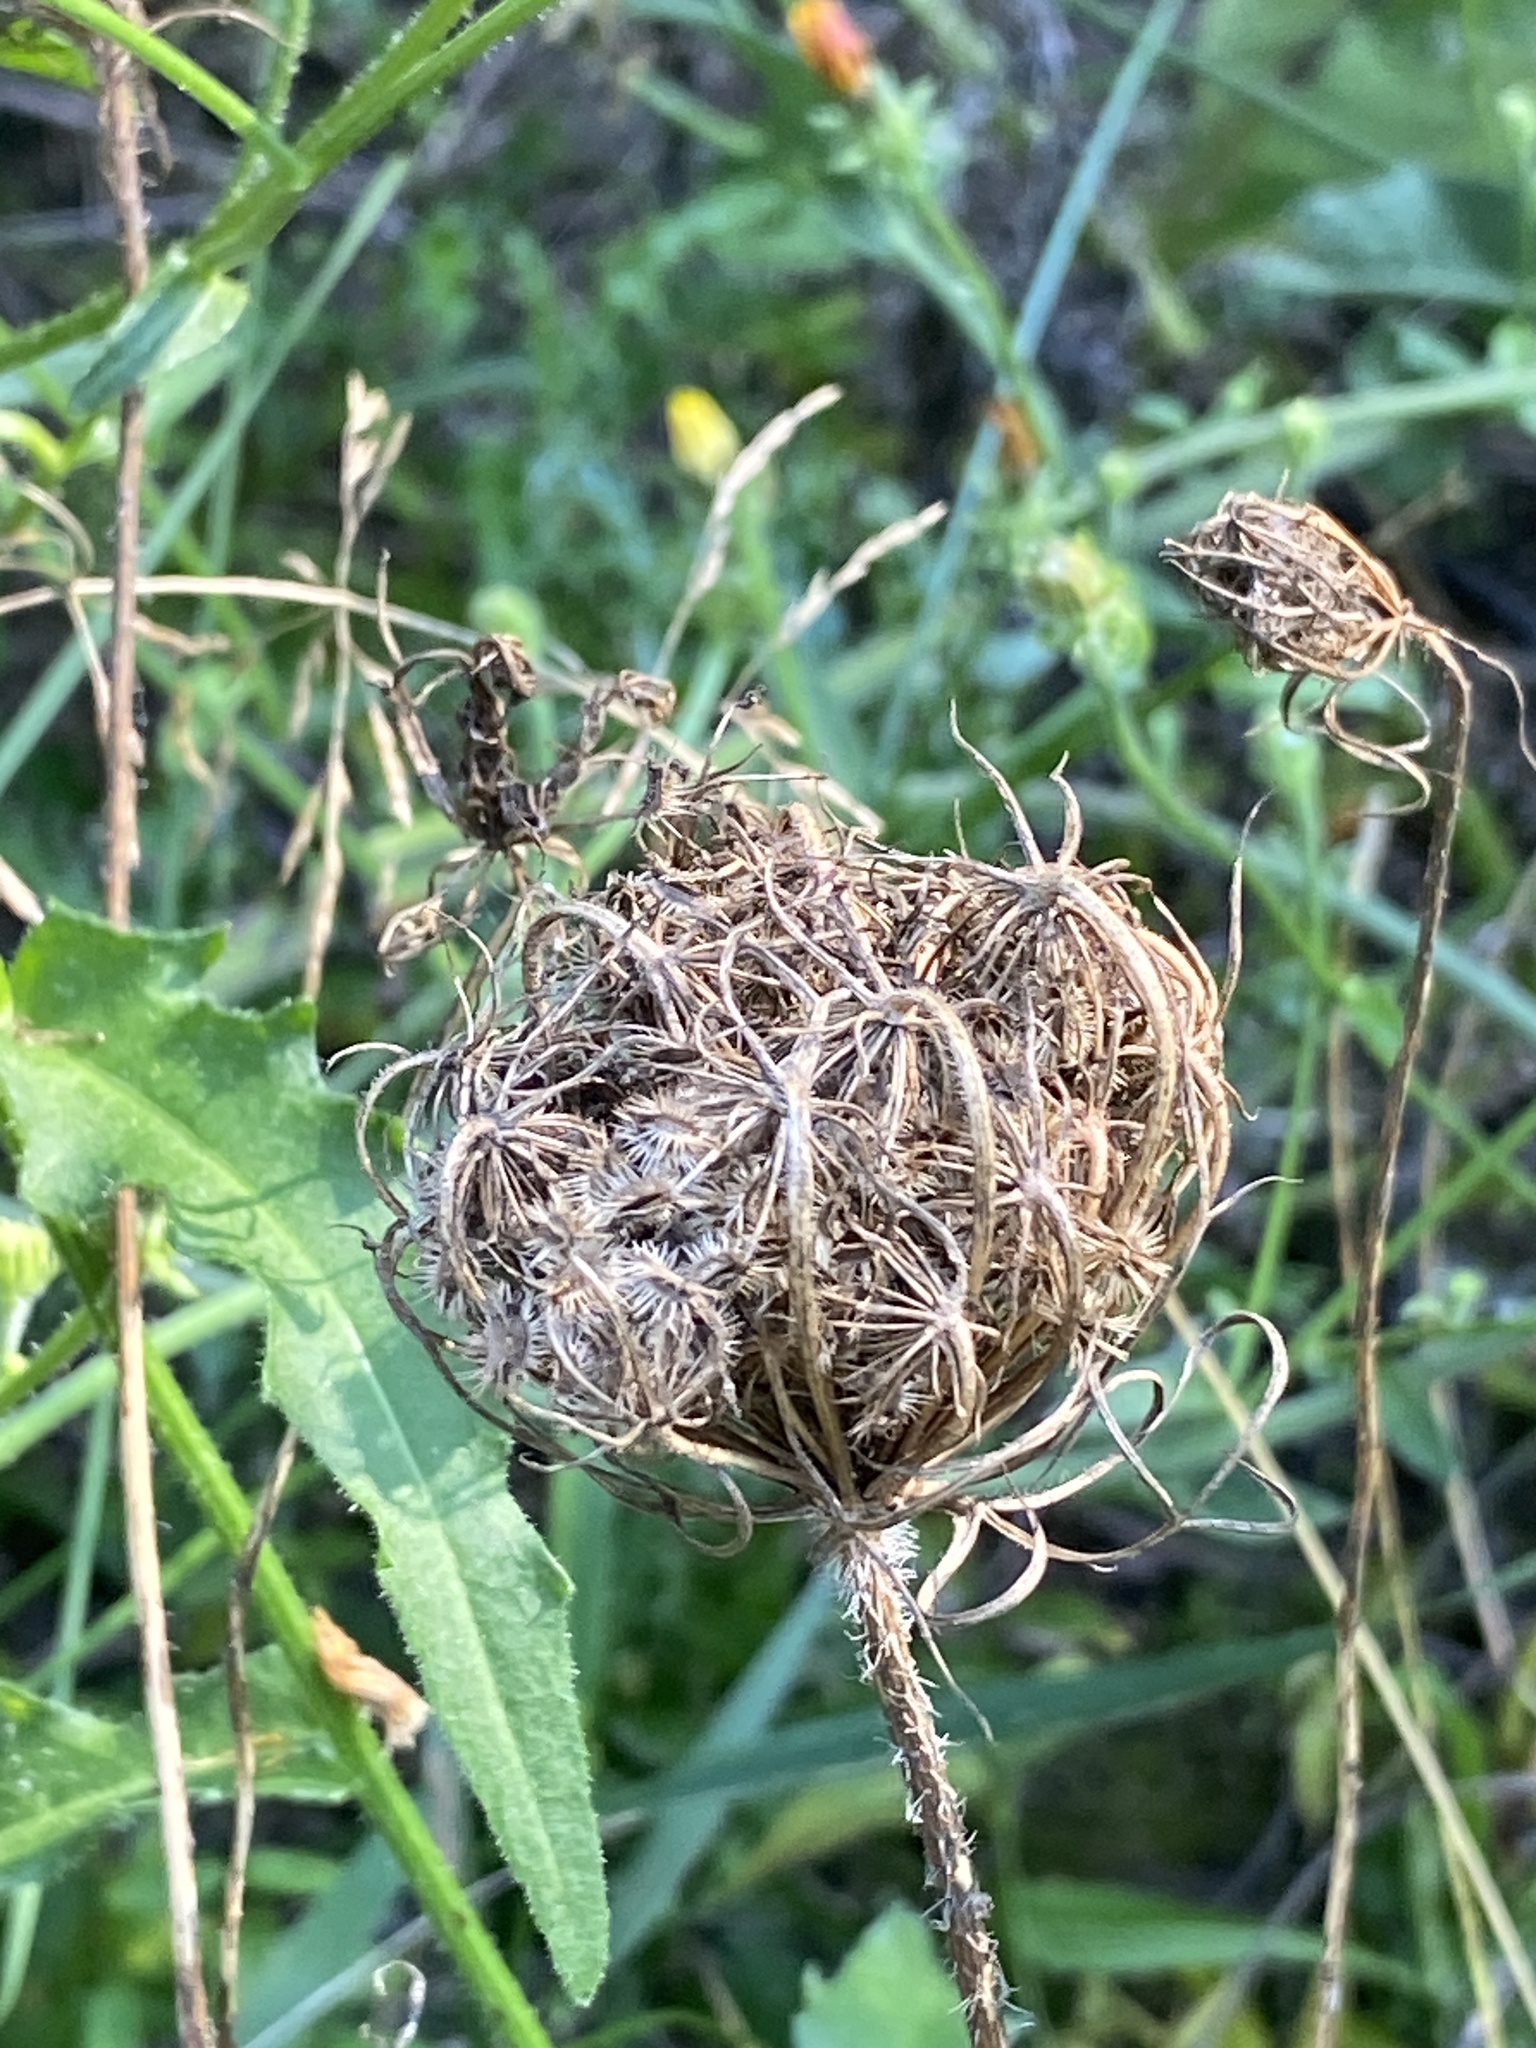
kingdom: Plantae
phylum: Tracheophyta
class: Magnoliopsida
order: Apiales
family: Apiaceae
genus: Daucus
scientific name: Daucus carota
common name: Wild carrot
